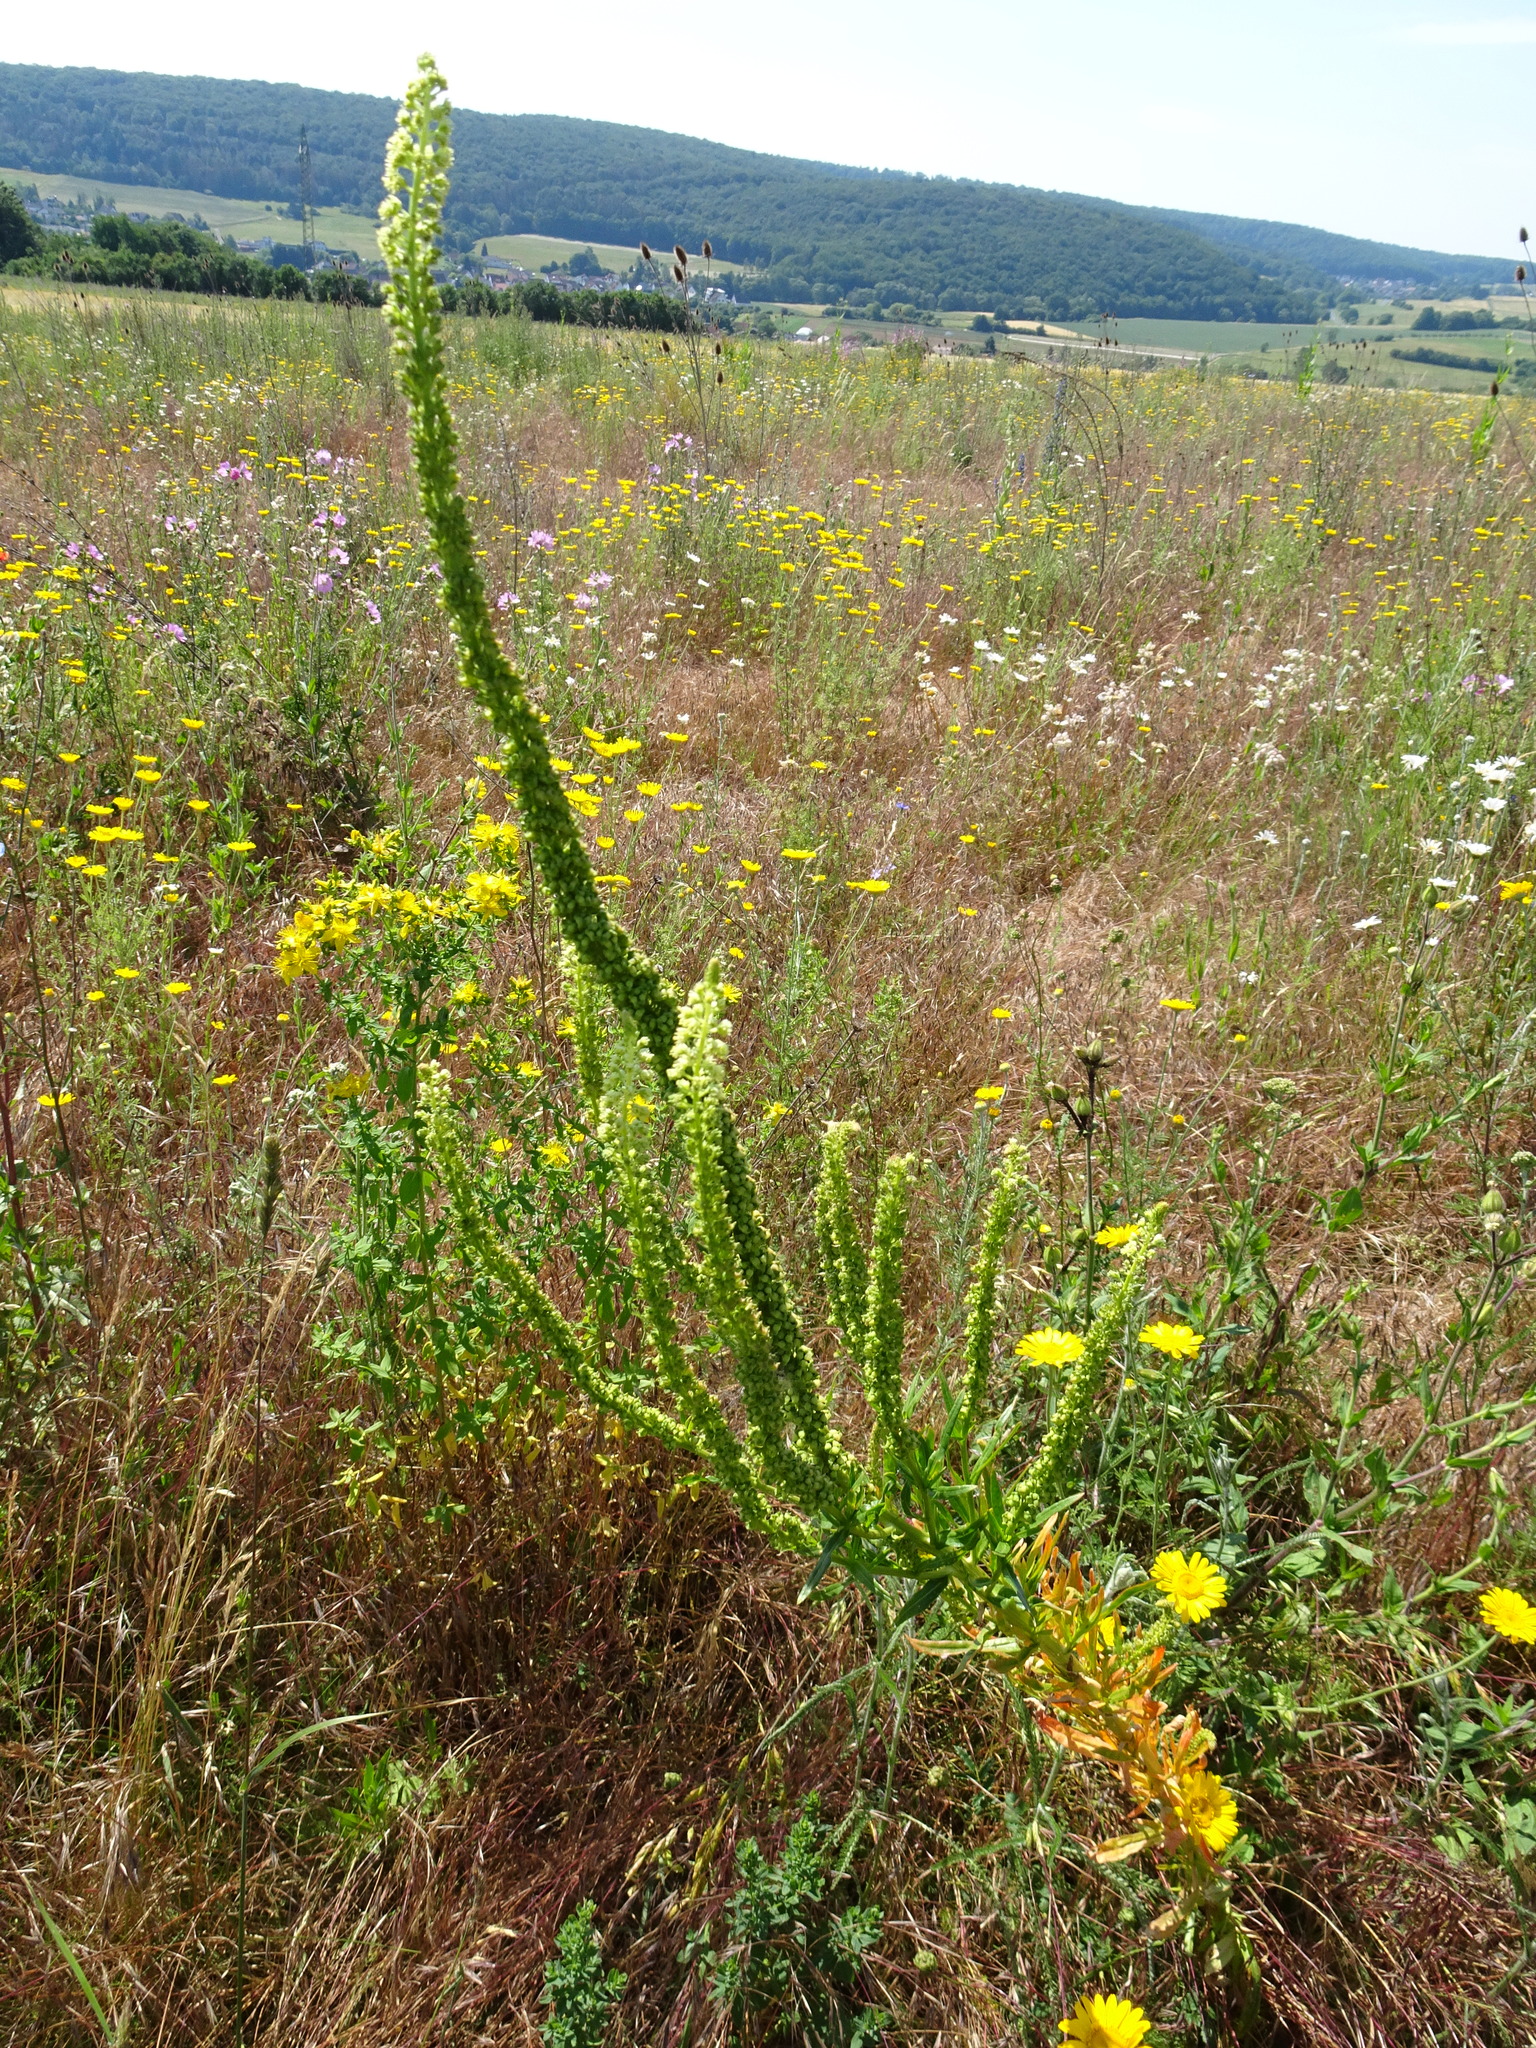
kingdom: Plantae
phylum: Tracheophyta
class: Magnoliopsida
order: Brassicales
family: Resedaceae
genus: Reseda
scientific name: Reseda luteola
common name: Weld
